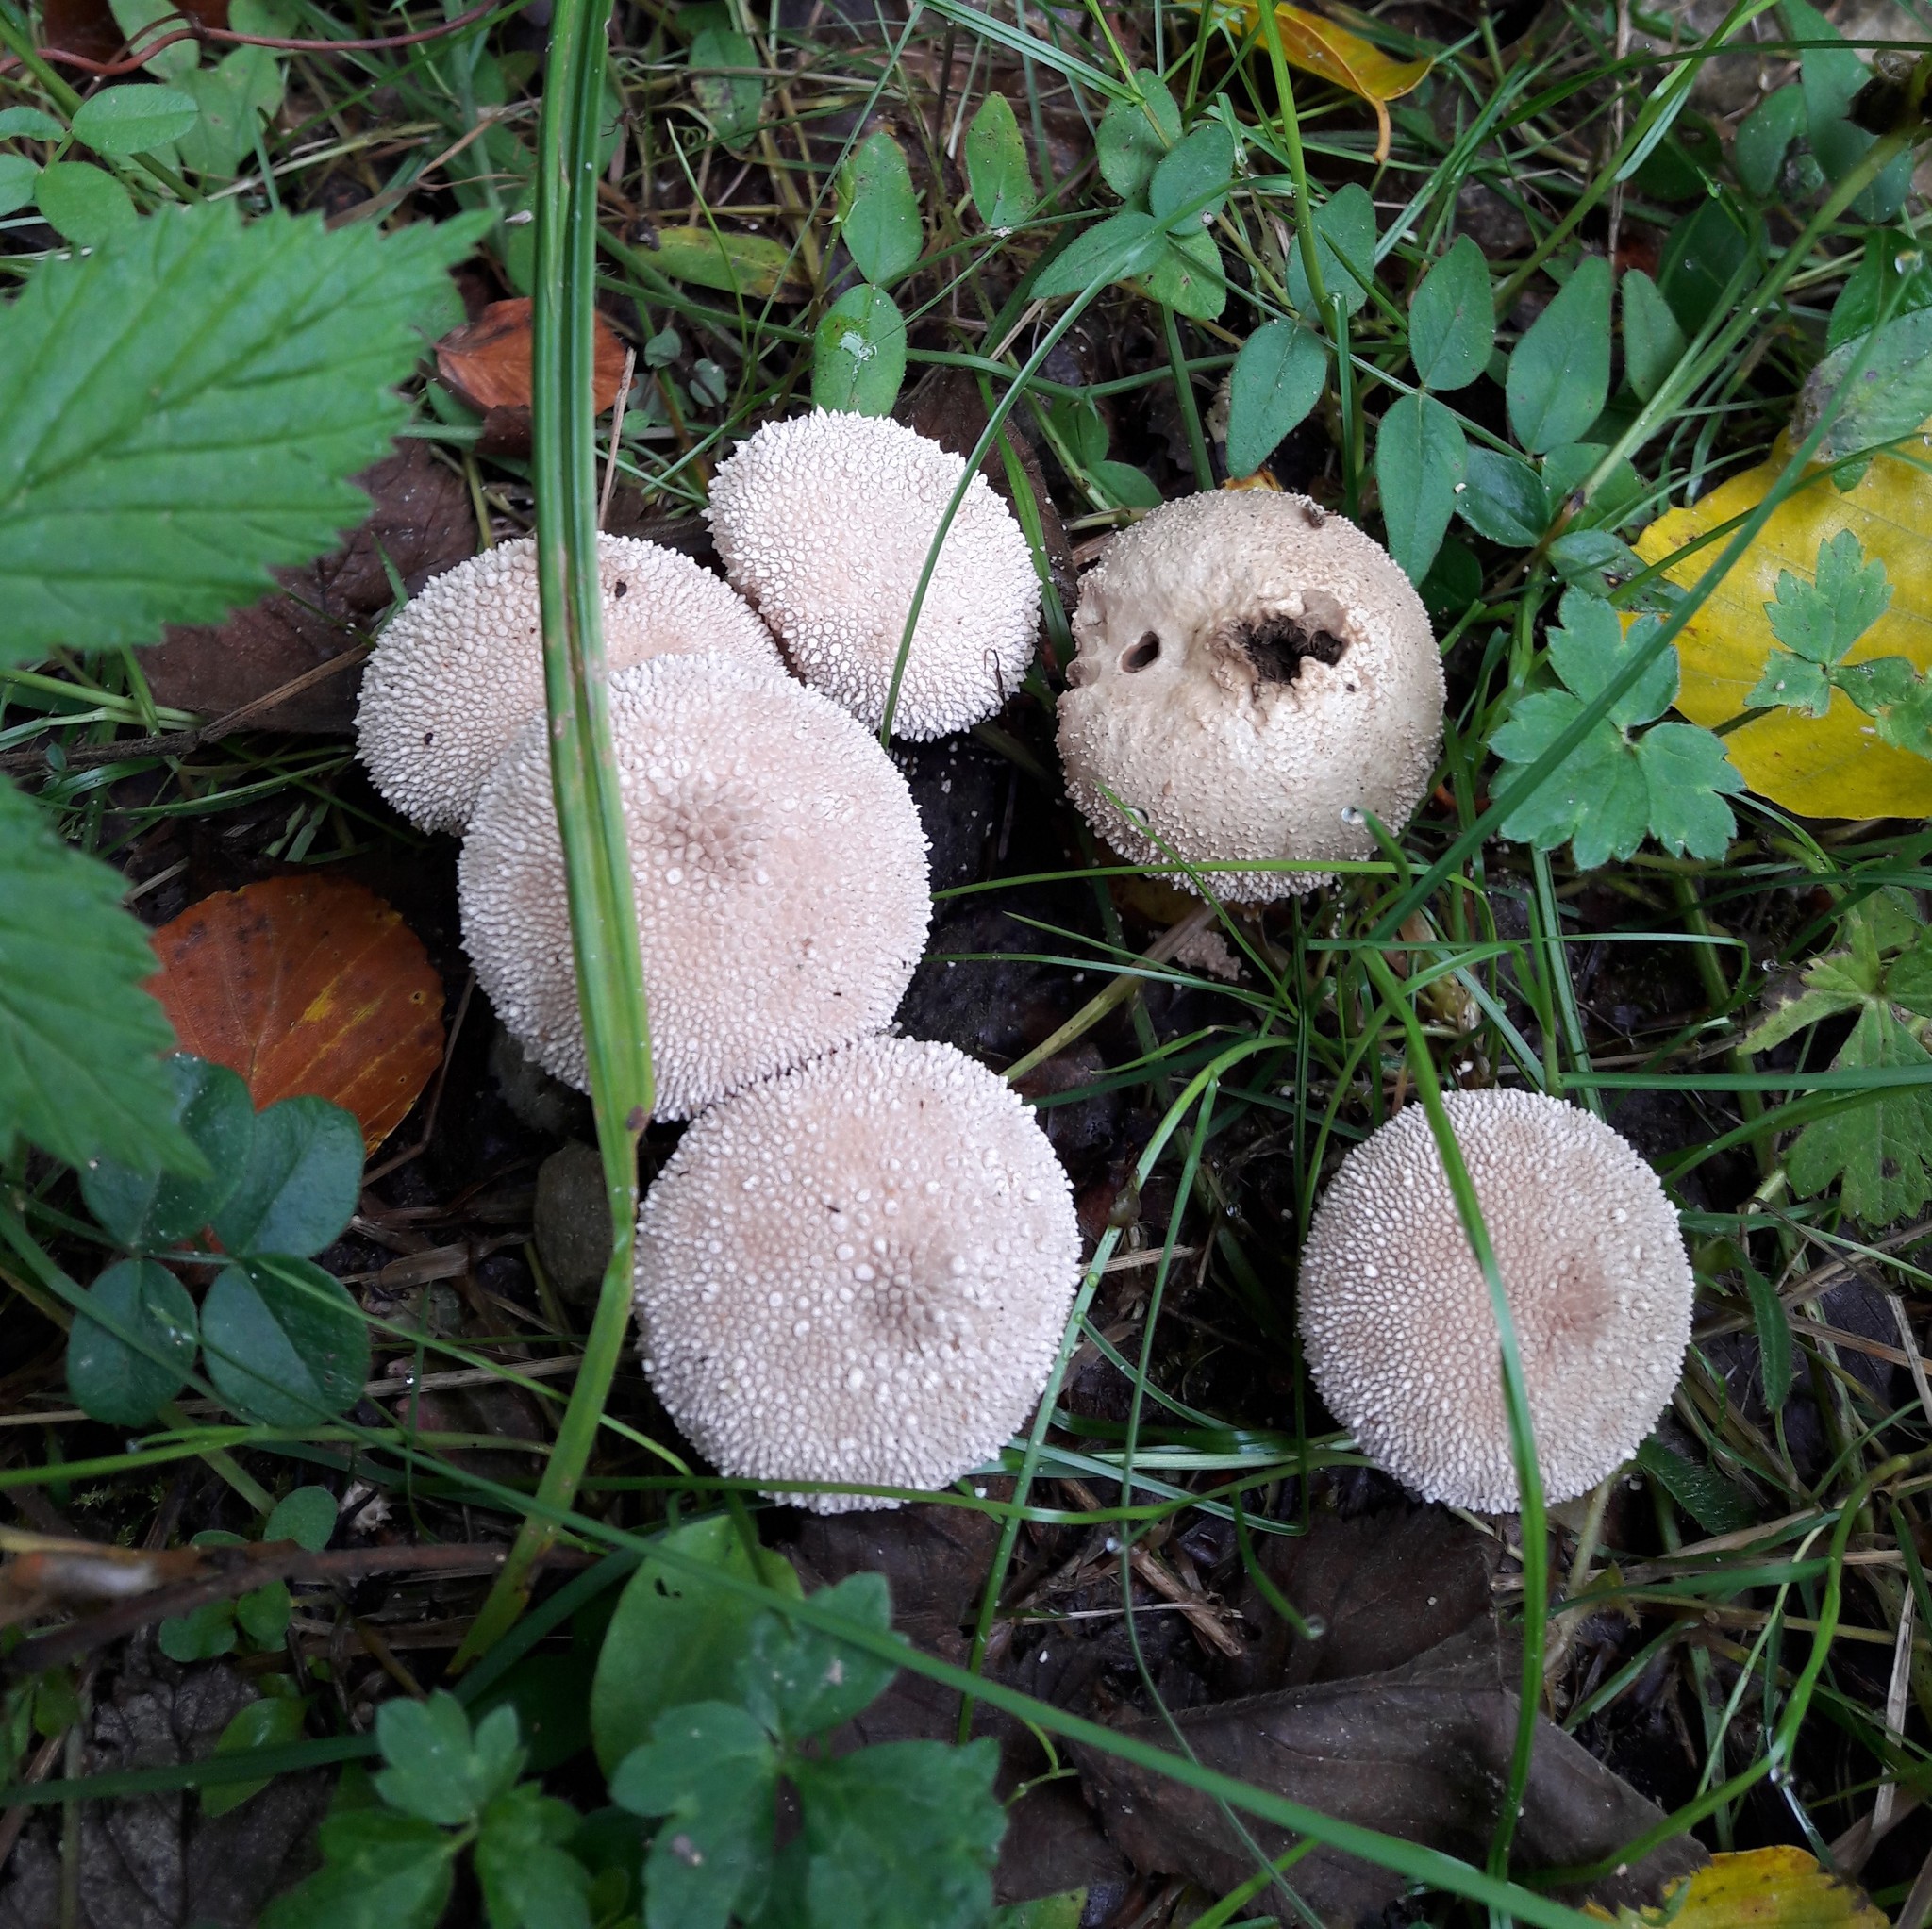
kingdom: Fungi
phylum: Basidiomycota
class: Agaricomycetes
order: Agaricales
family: Lycoperdaceae
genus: Lycoperdon
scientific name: Lycoperdon perlatum
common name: Common puffball
